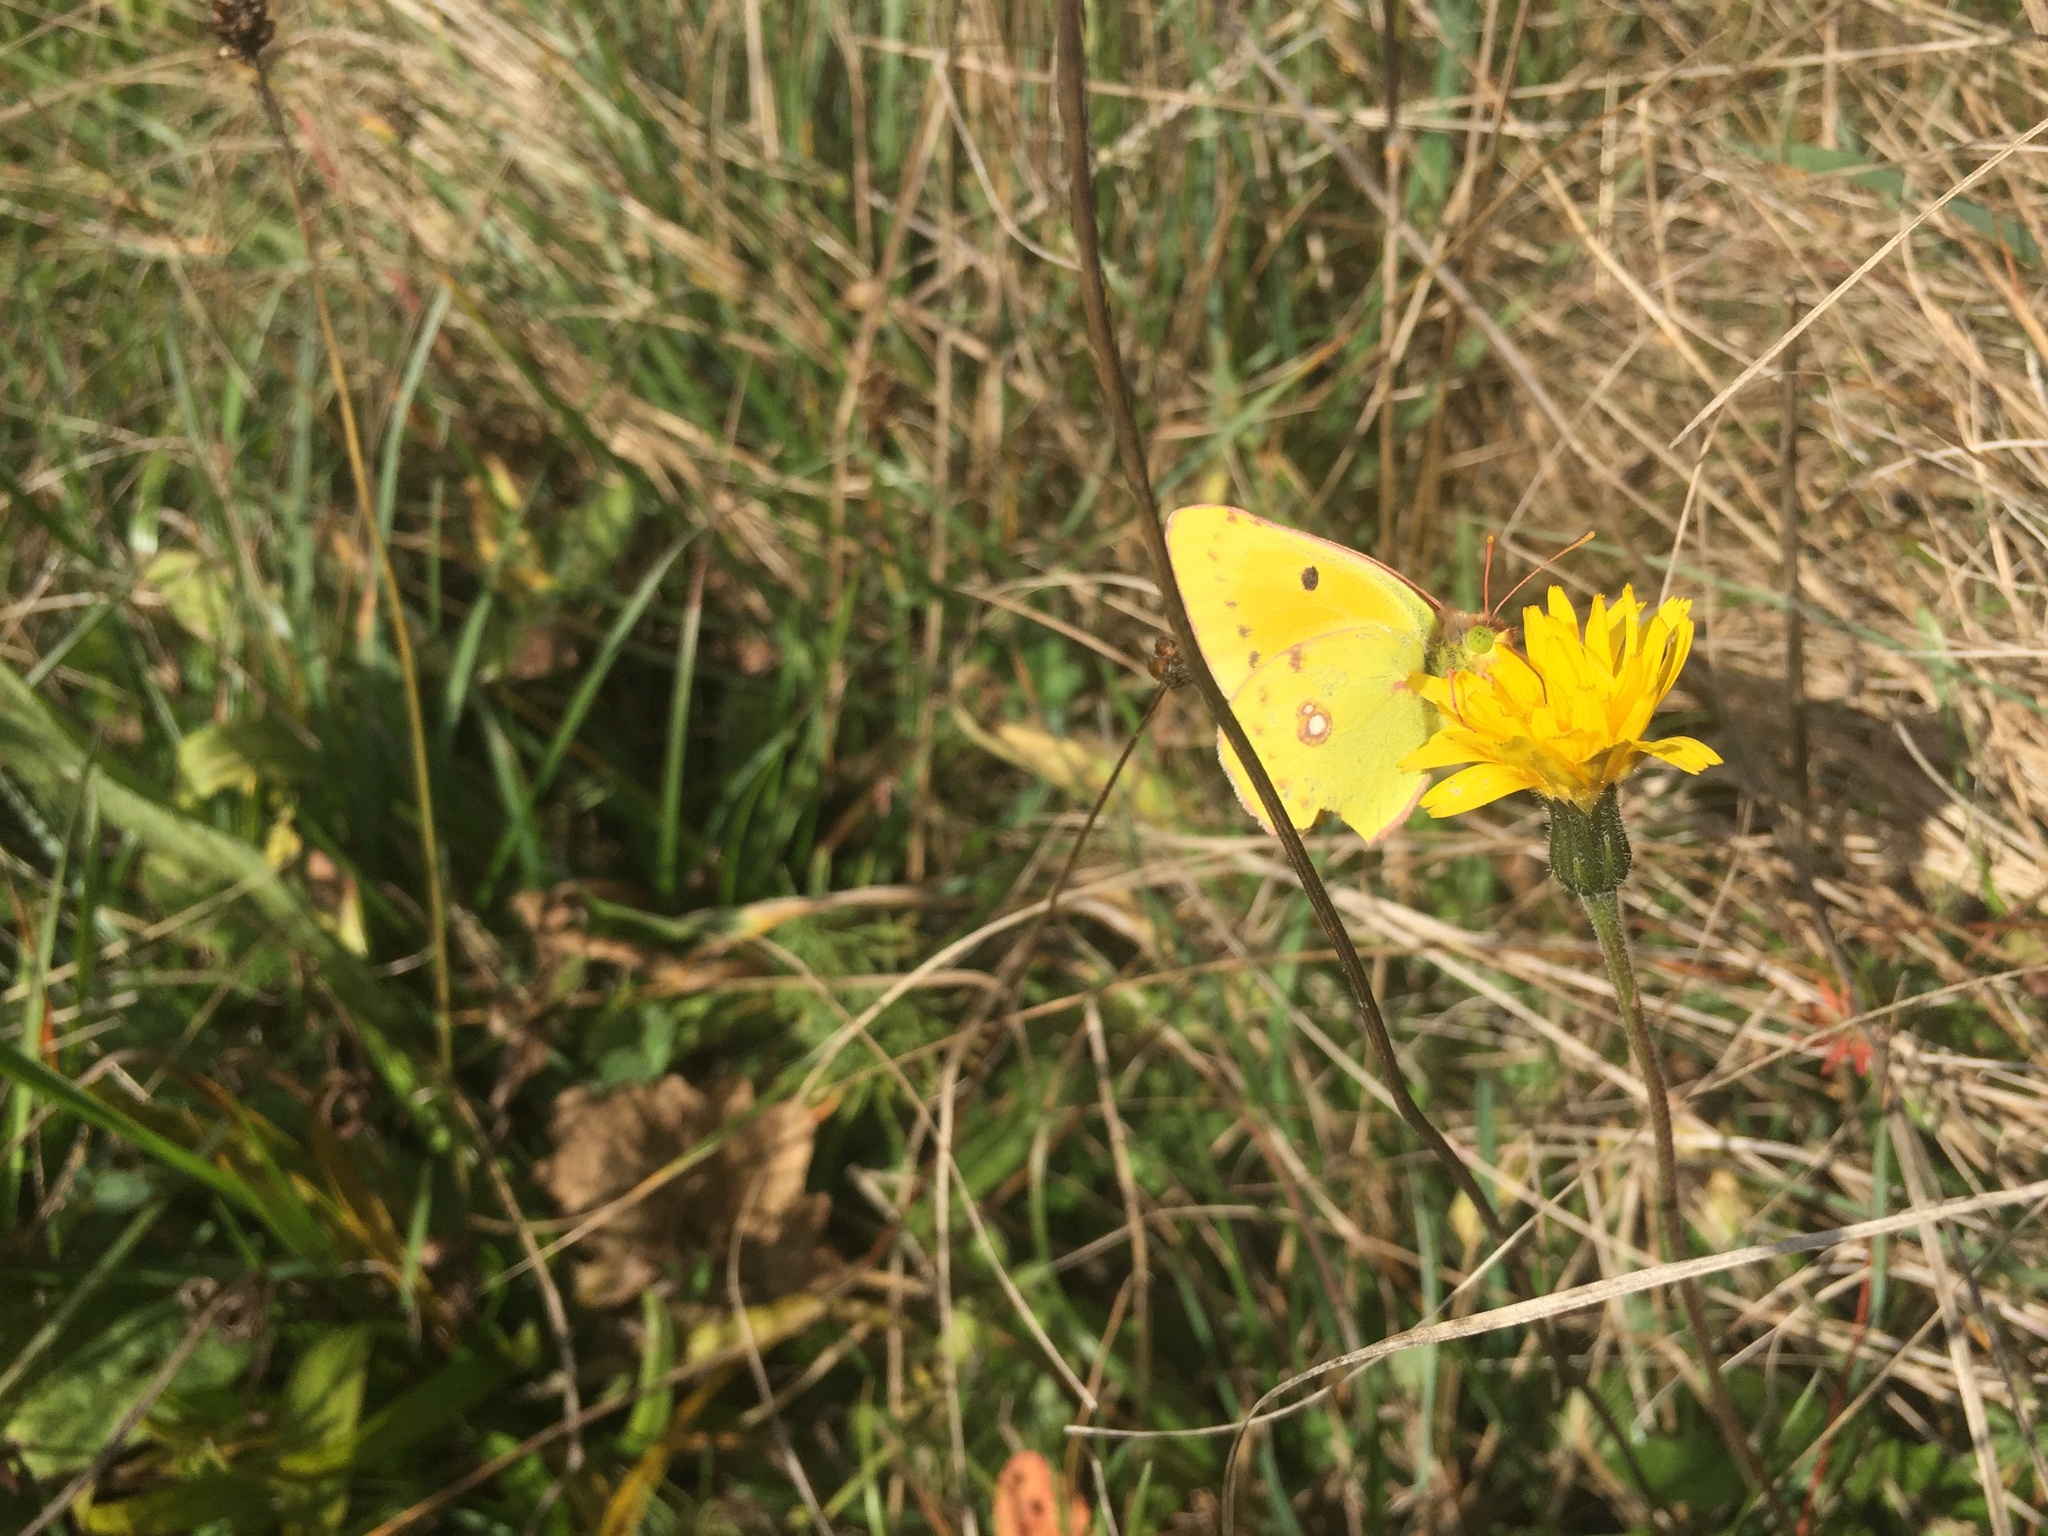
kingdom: Animalia
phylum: Arthropoda
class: Insecta
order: Lepidoptera
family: Pieridae
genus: Colias
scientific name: Colias croceus
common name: Clouded yellow
